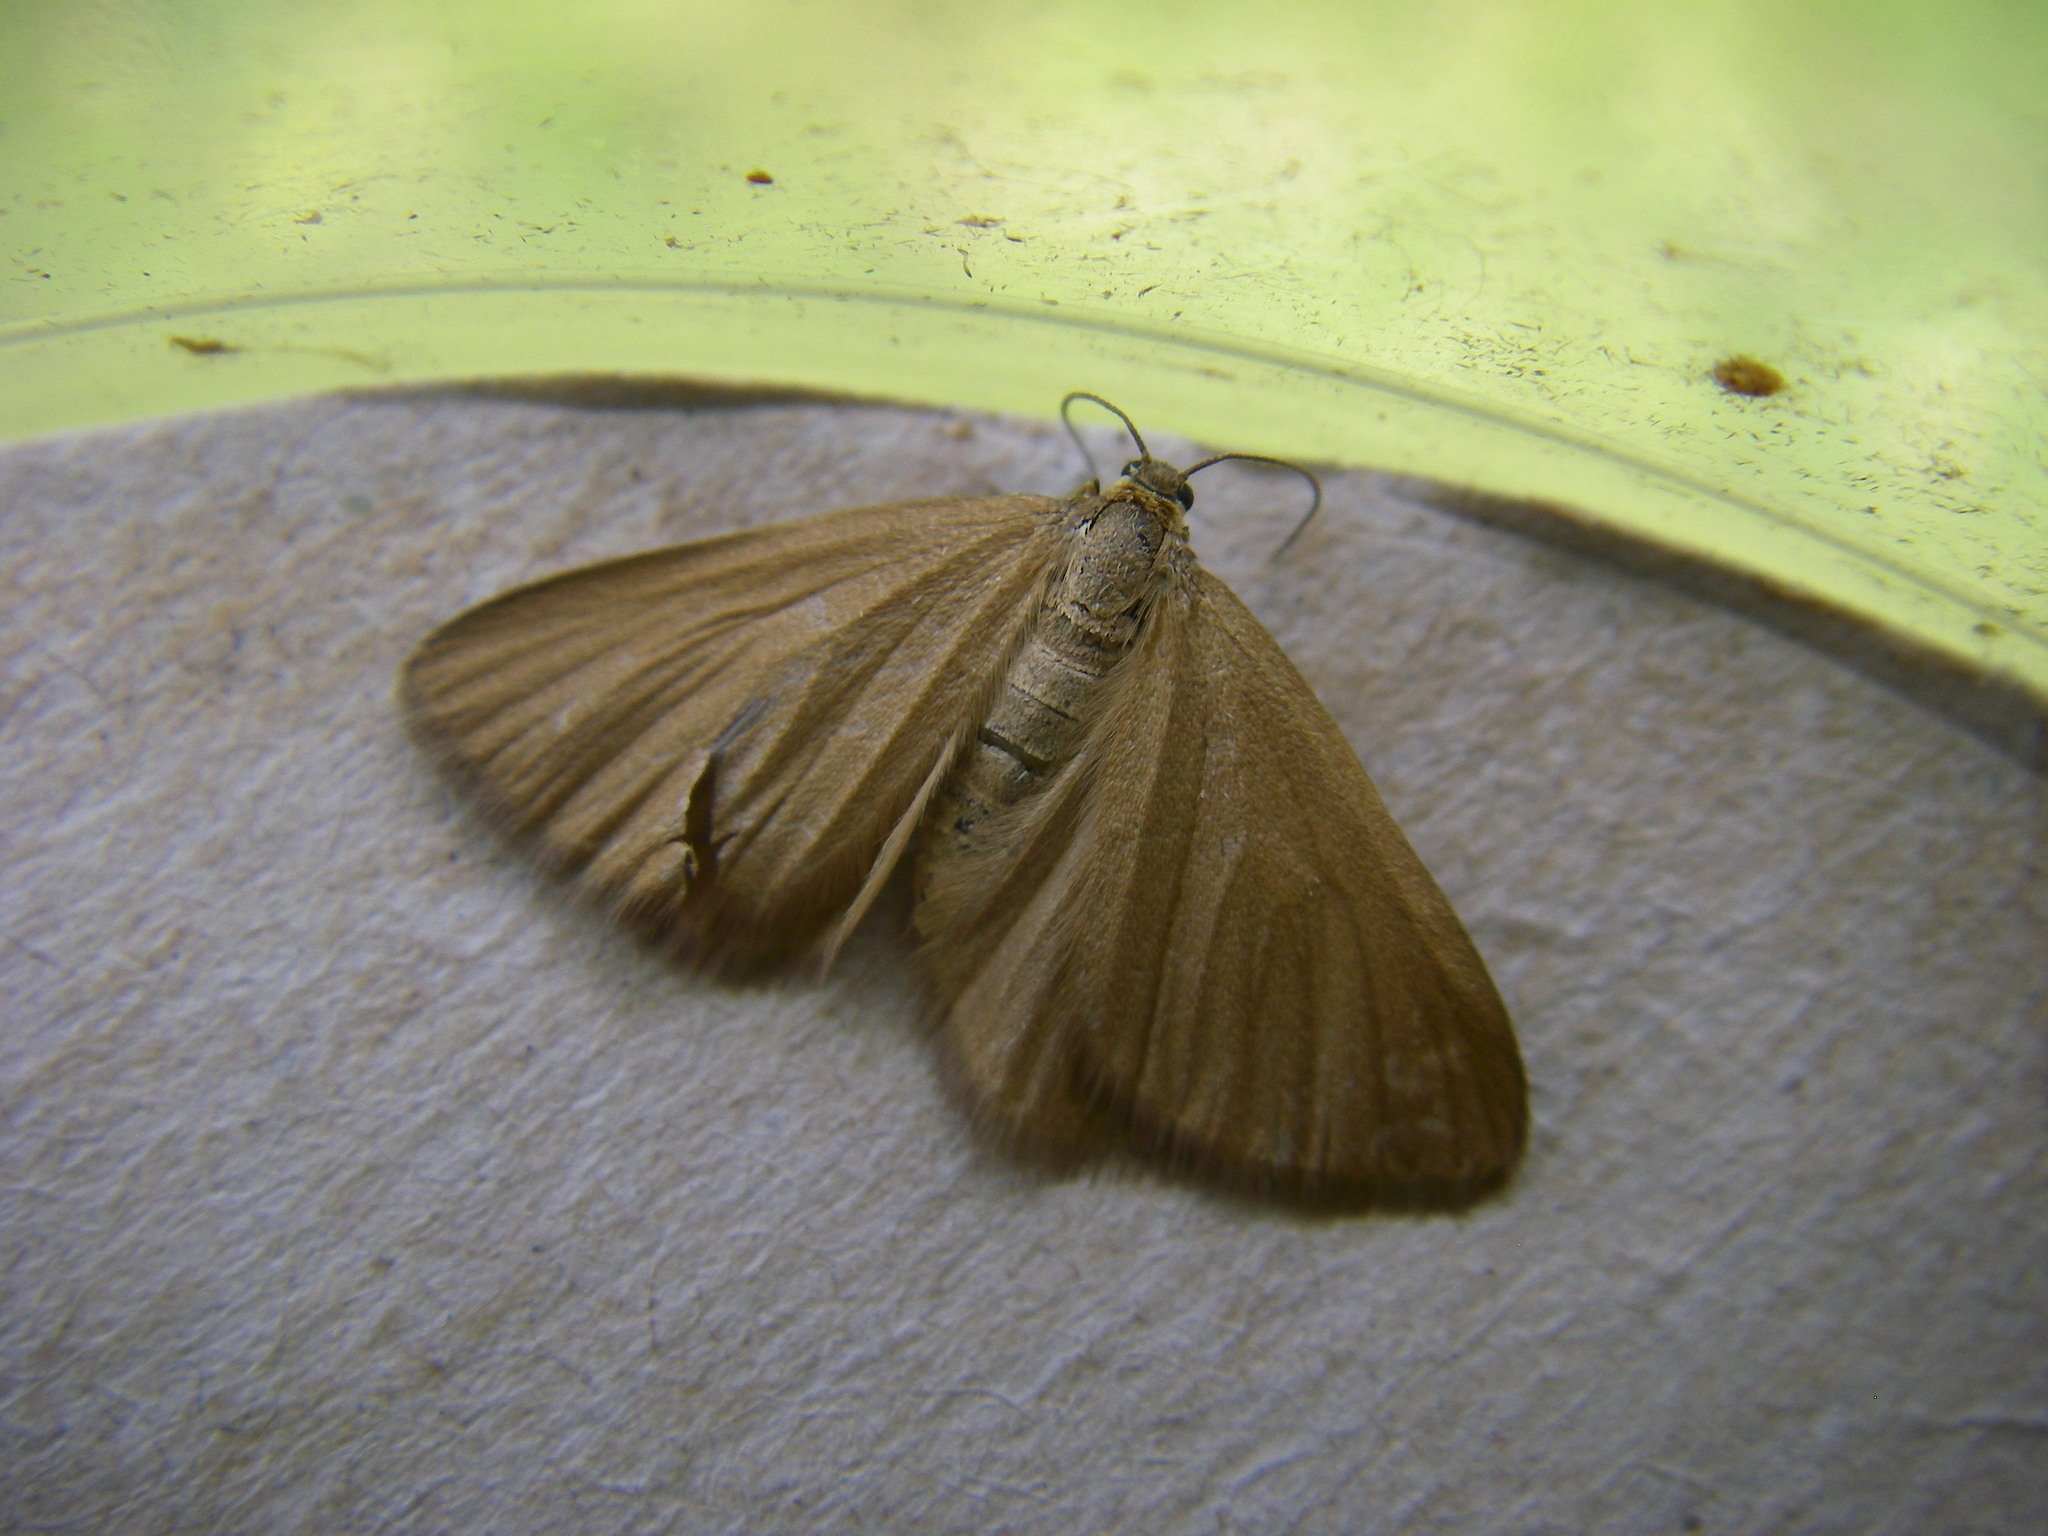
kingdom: Animalia
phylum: Arthropoda
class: Insecta
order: Lepidoptera
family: Geometridae
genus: Minoa
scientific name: Minoa murinata
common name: Drab looper
